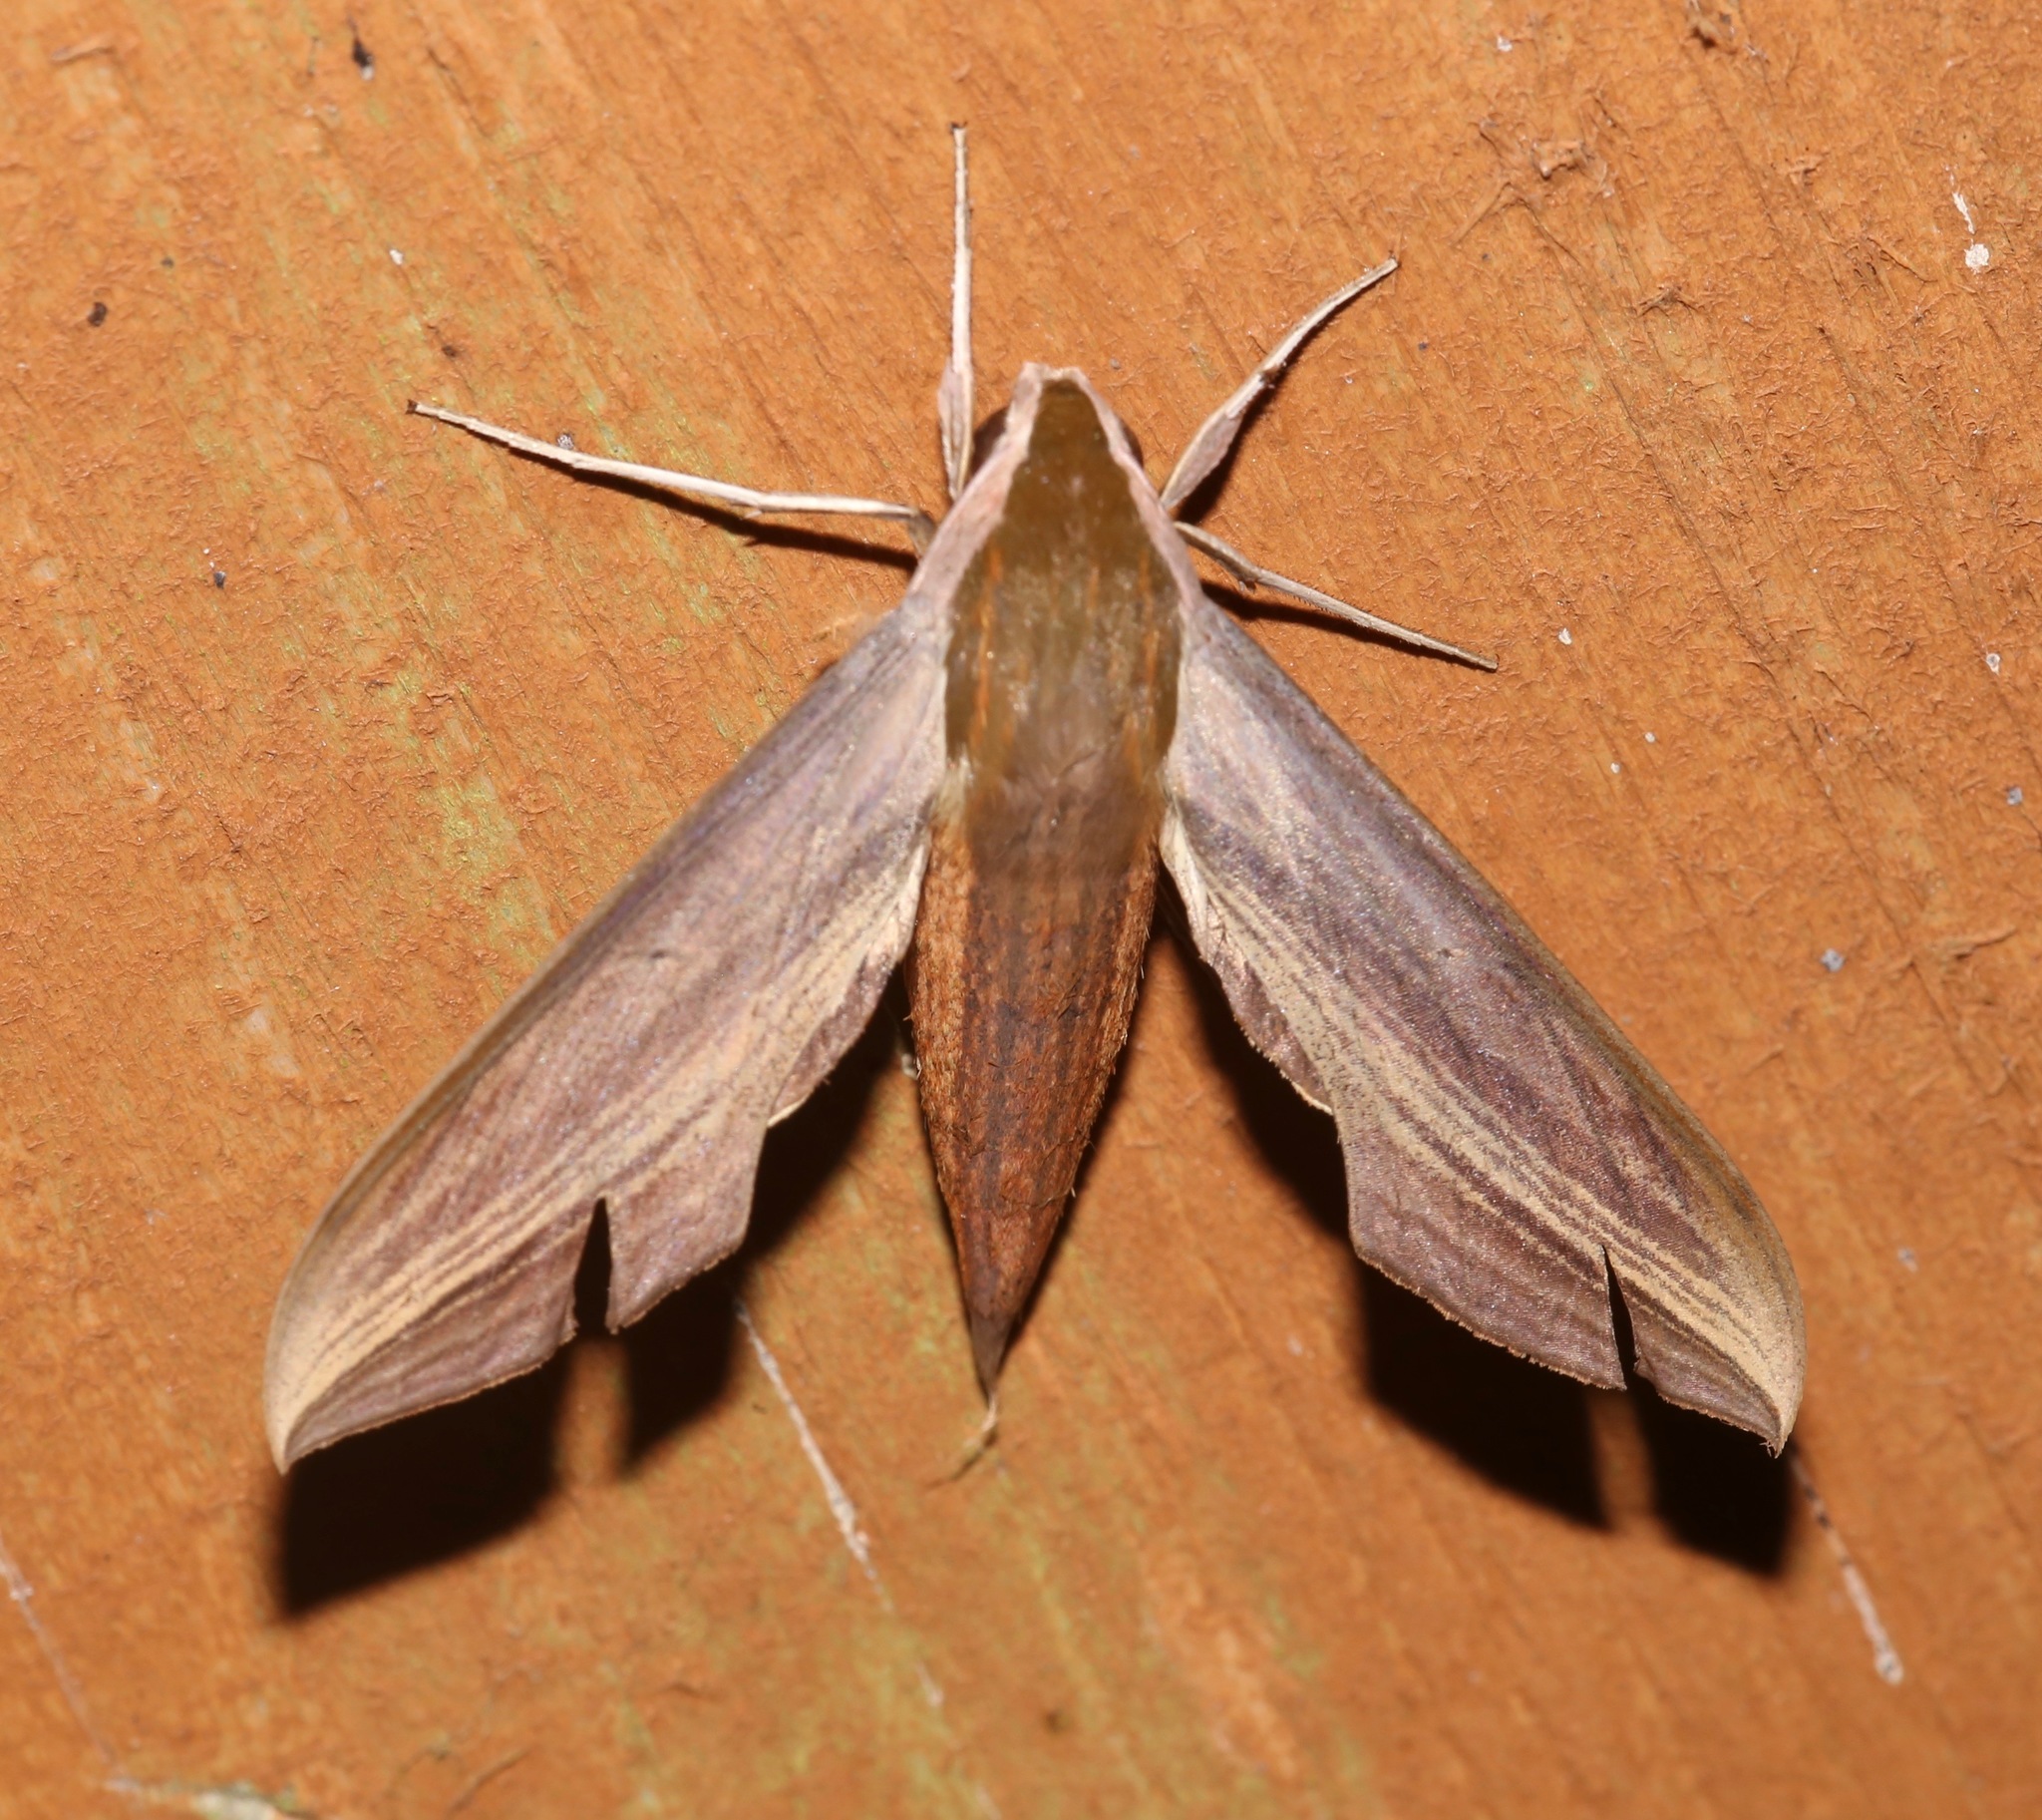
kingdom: Animalia
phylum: Arthropoda
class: Insecta
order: Lepidoptera
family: Sphingidae
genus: Xylophanes
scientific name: Xylophanes tersa
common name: Tersa sphinx
